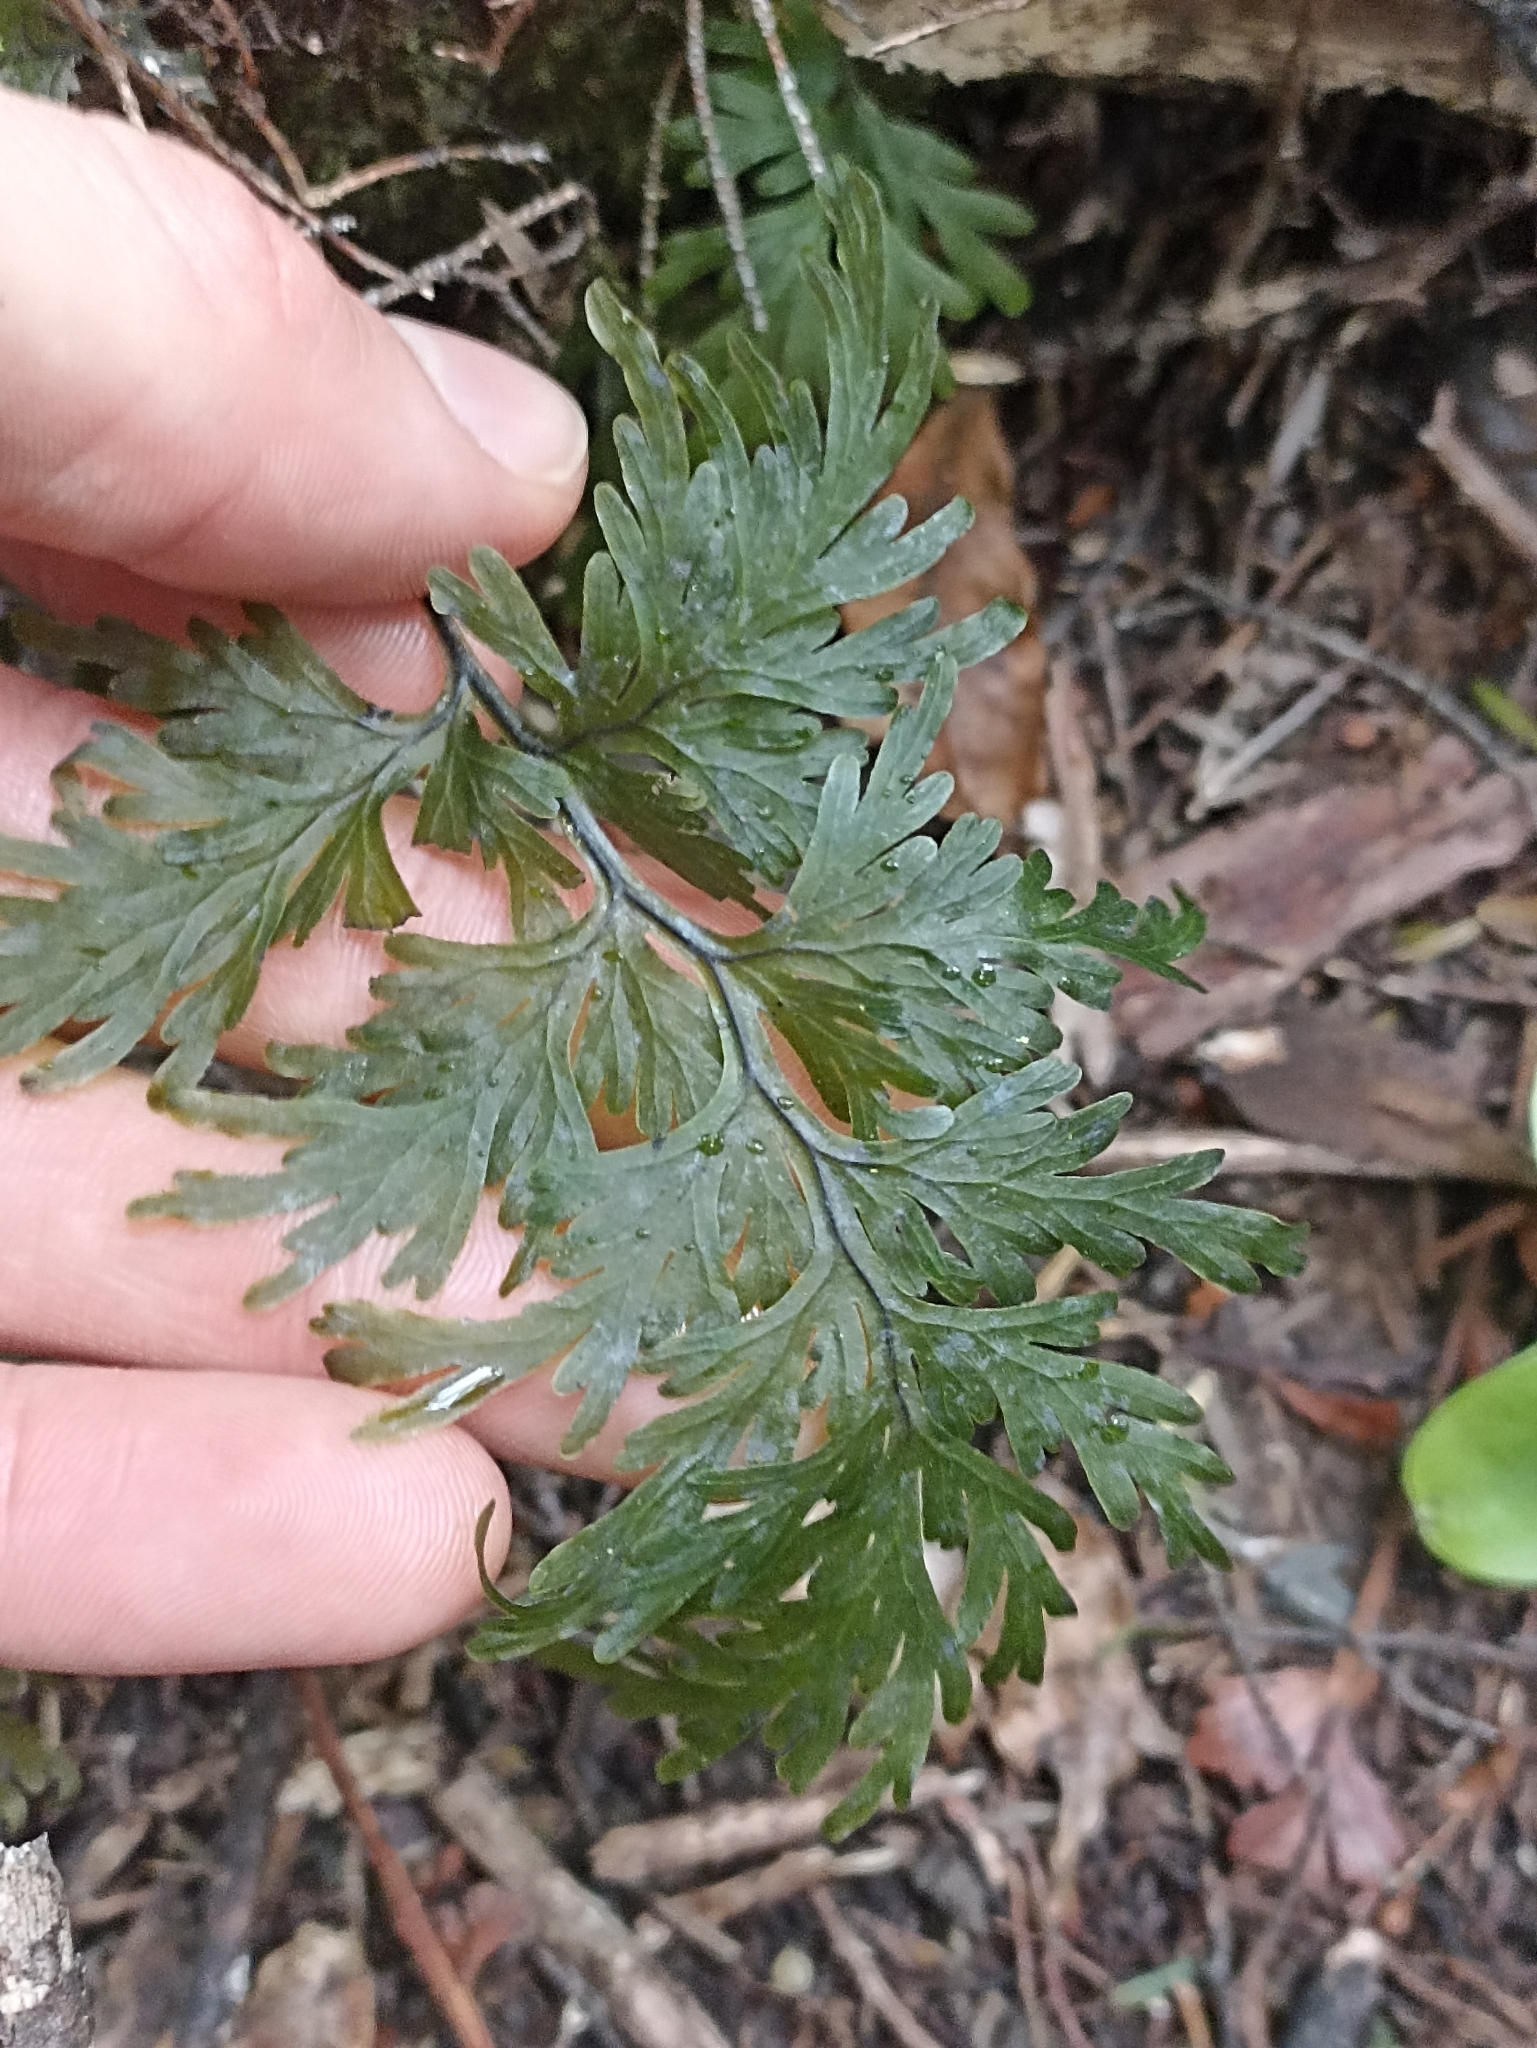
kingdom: Plantae
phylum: Tracheophyta
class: Polypodiopsida
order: Hymenophyllales
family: Hymenophyllaceae
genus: Hymenophyllum
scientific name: Hymenophyllum dilatatum
